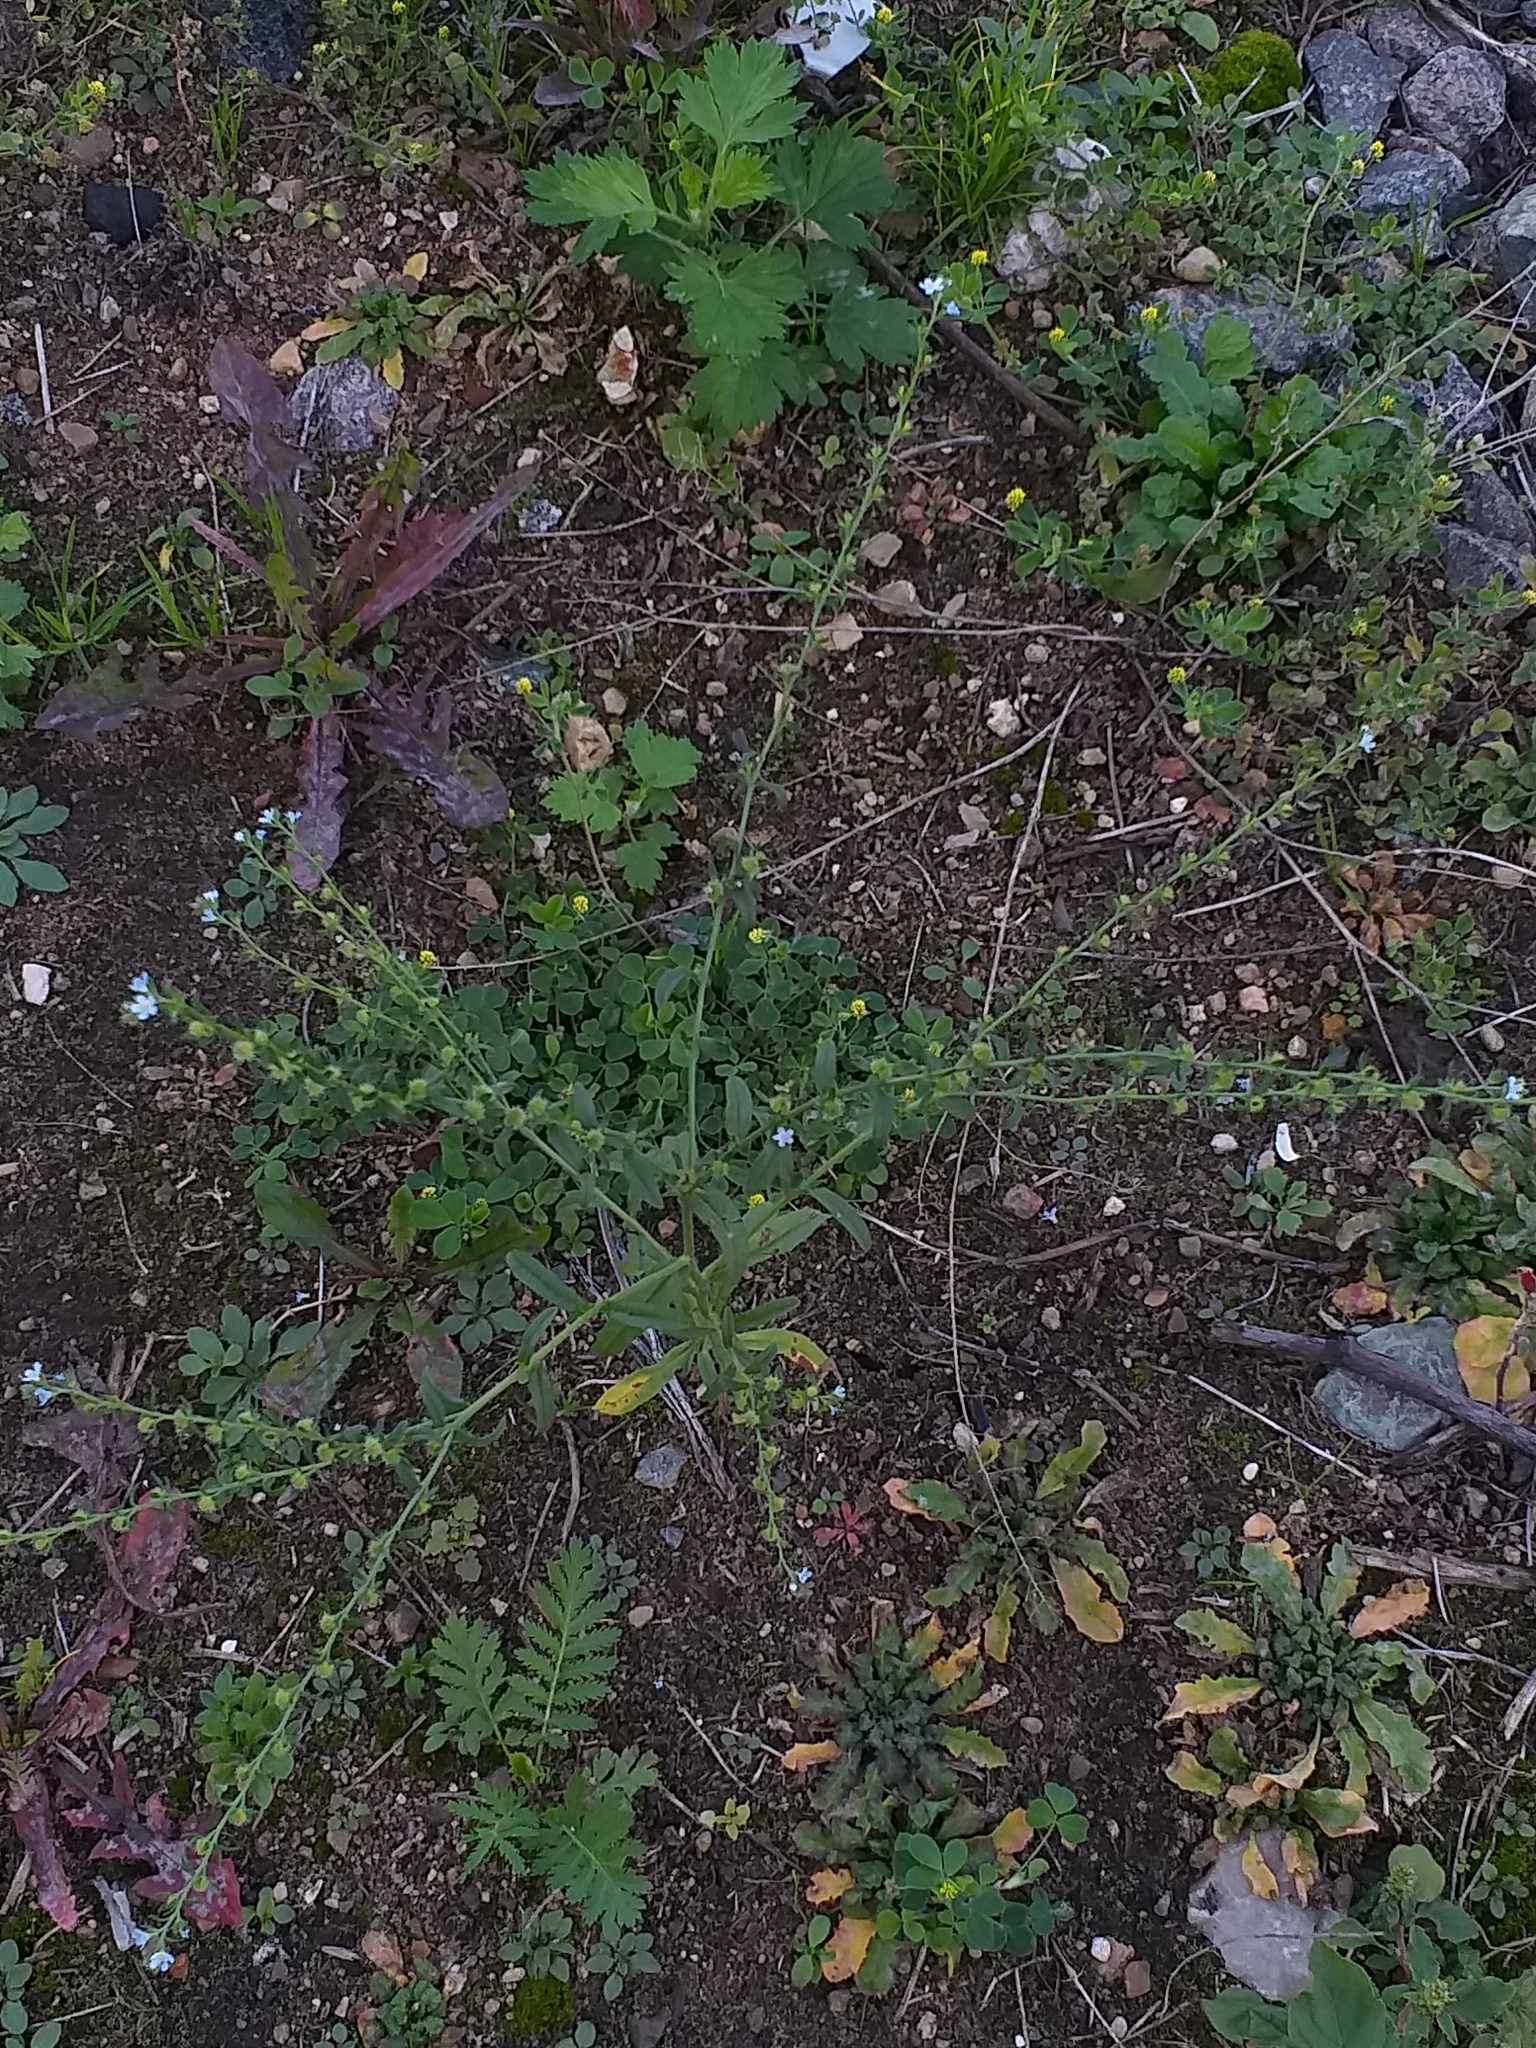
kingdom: Plantae
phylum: Tracheophyta
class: Magnoliopsida
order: Boraginales
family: Boraginaceae
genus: Lappula
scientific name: Lappula squarrosa
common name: European stickseed
